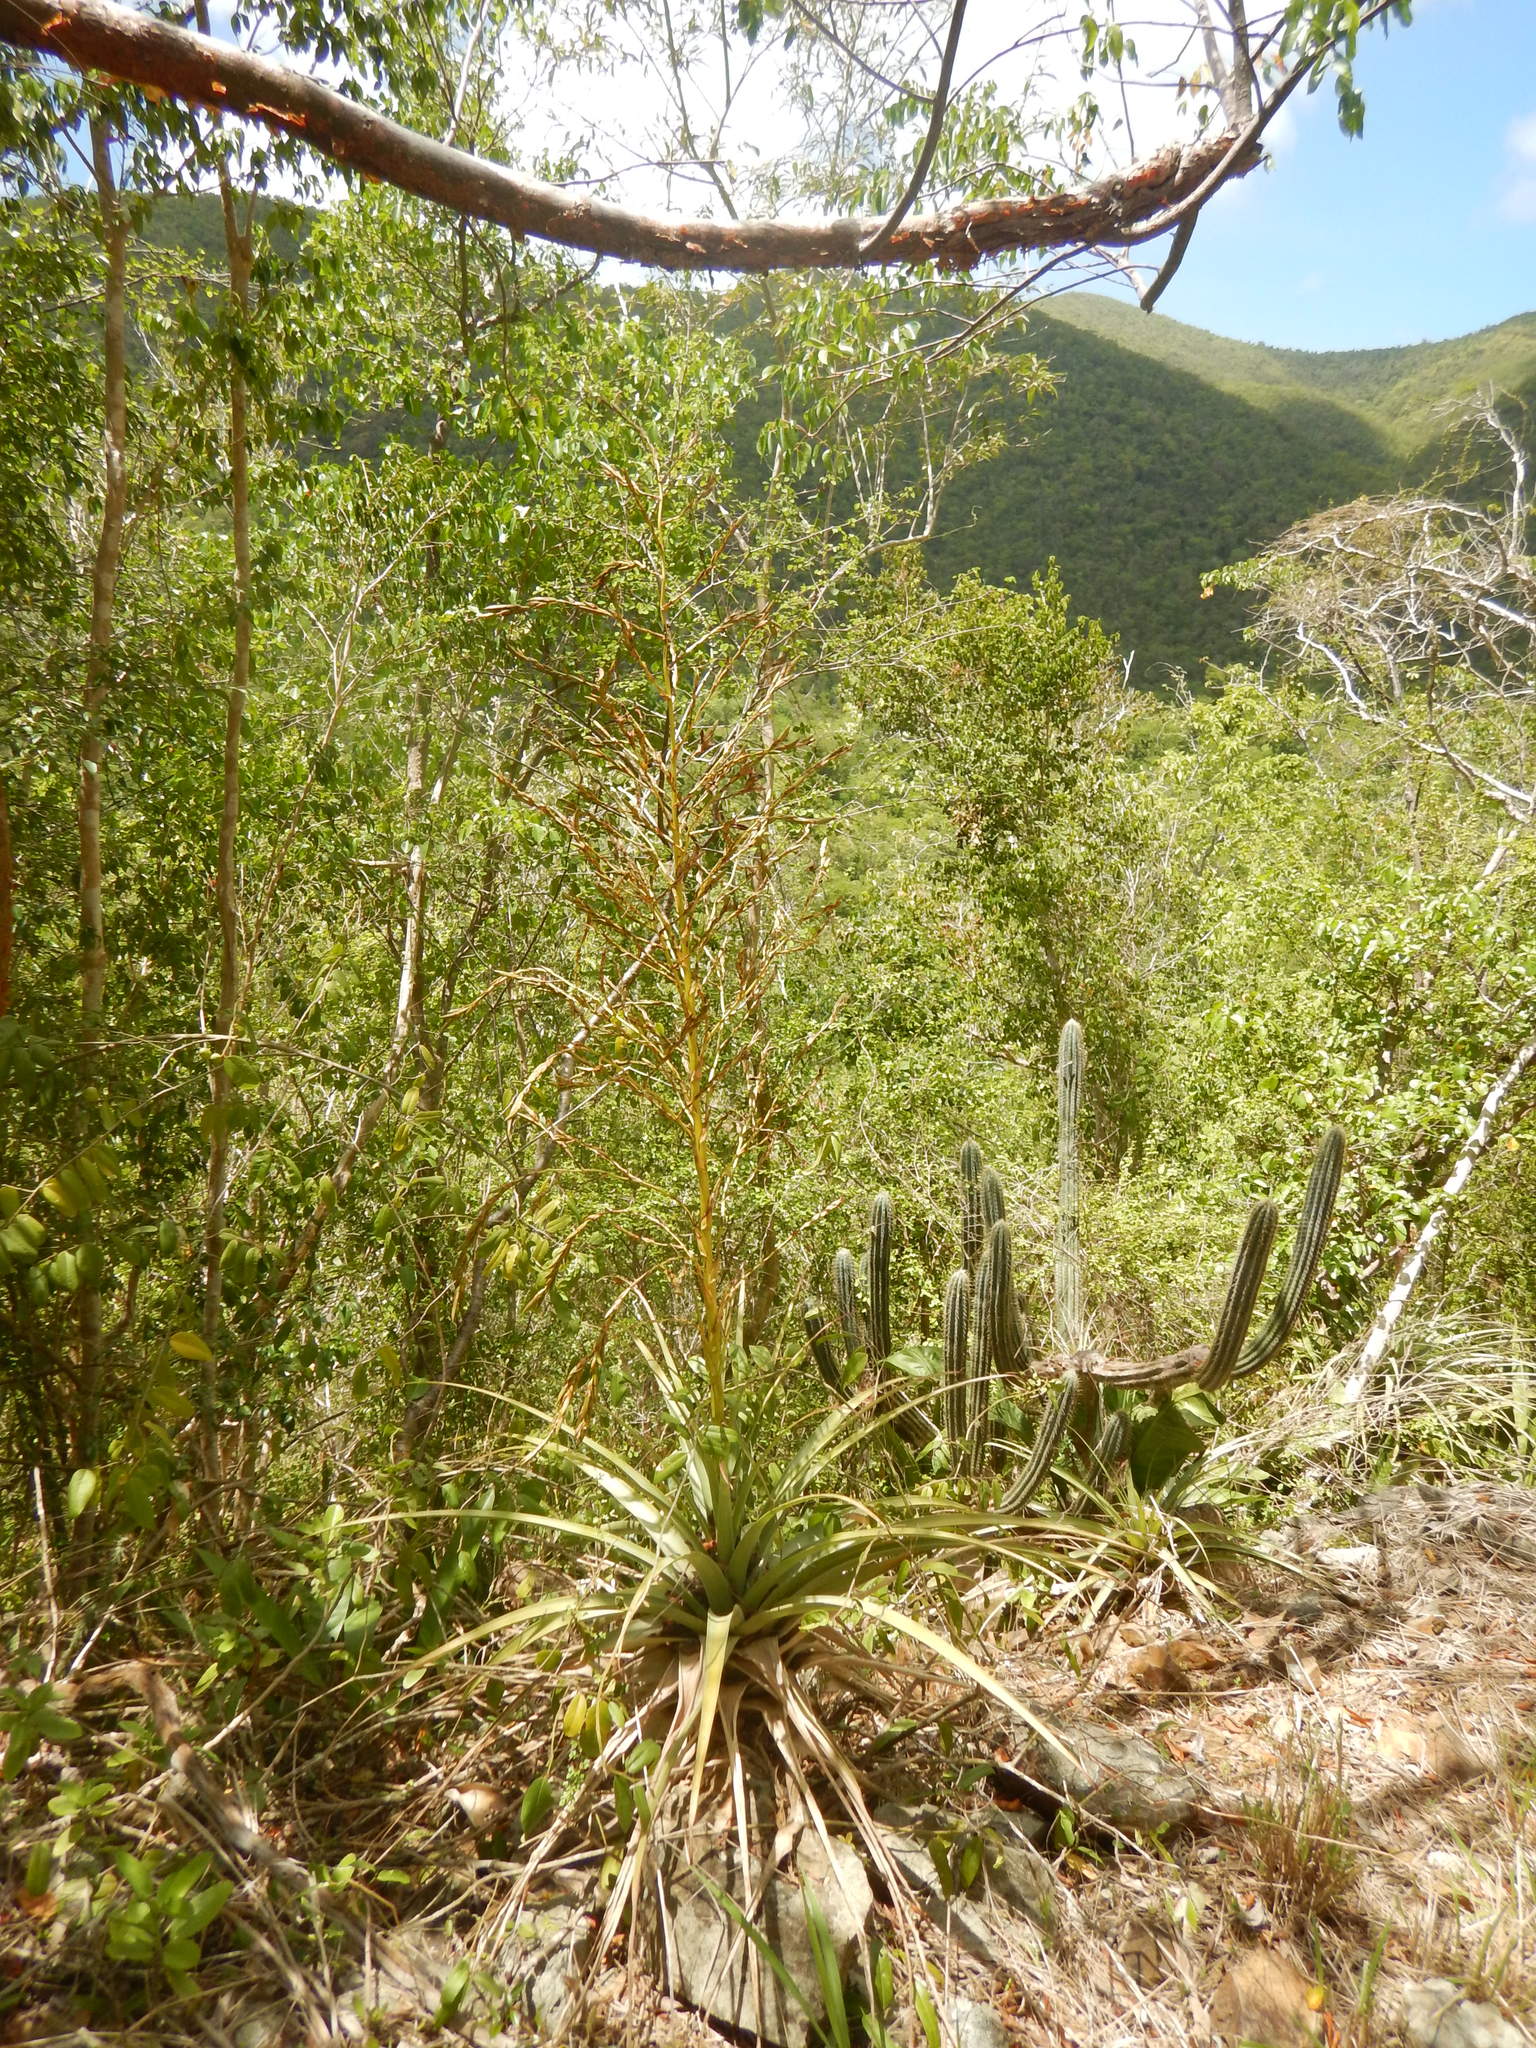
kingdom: Plantae
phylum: Tracheophyta
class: Liliopsida
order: Poales
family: Bromeliaceae
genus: Tillandsia
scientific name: Tillandsia utriculata
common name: Wild pine
